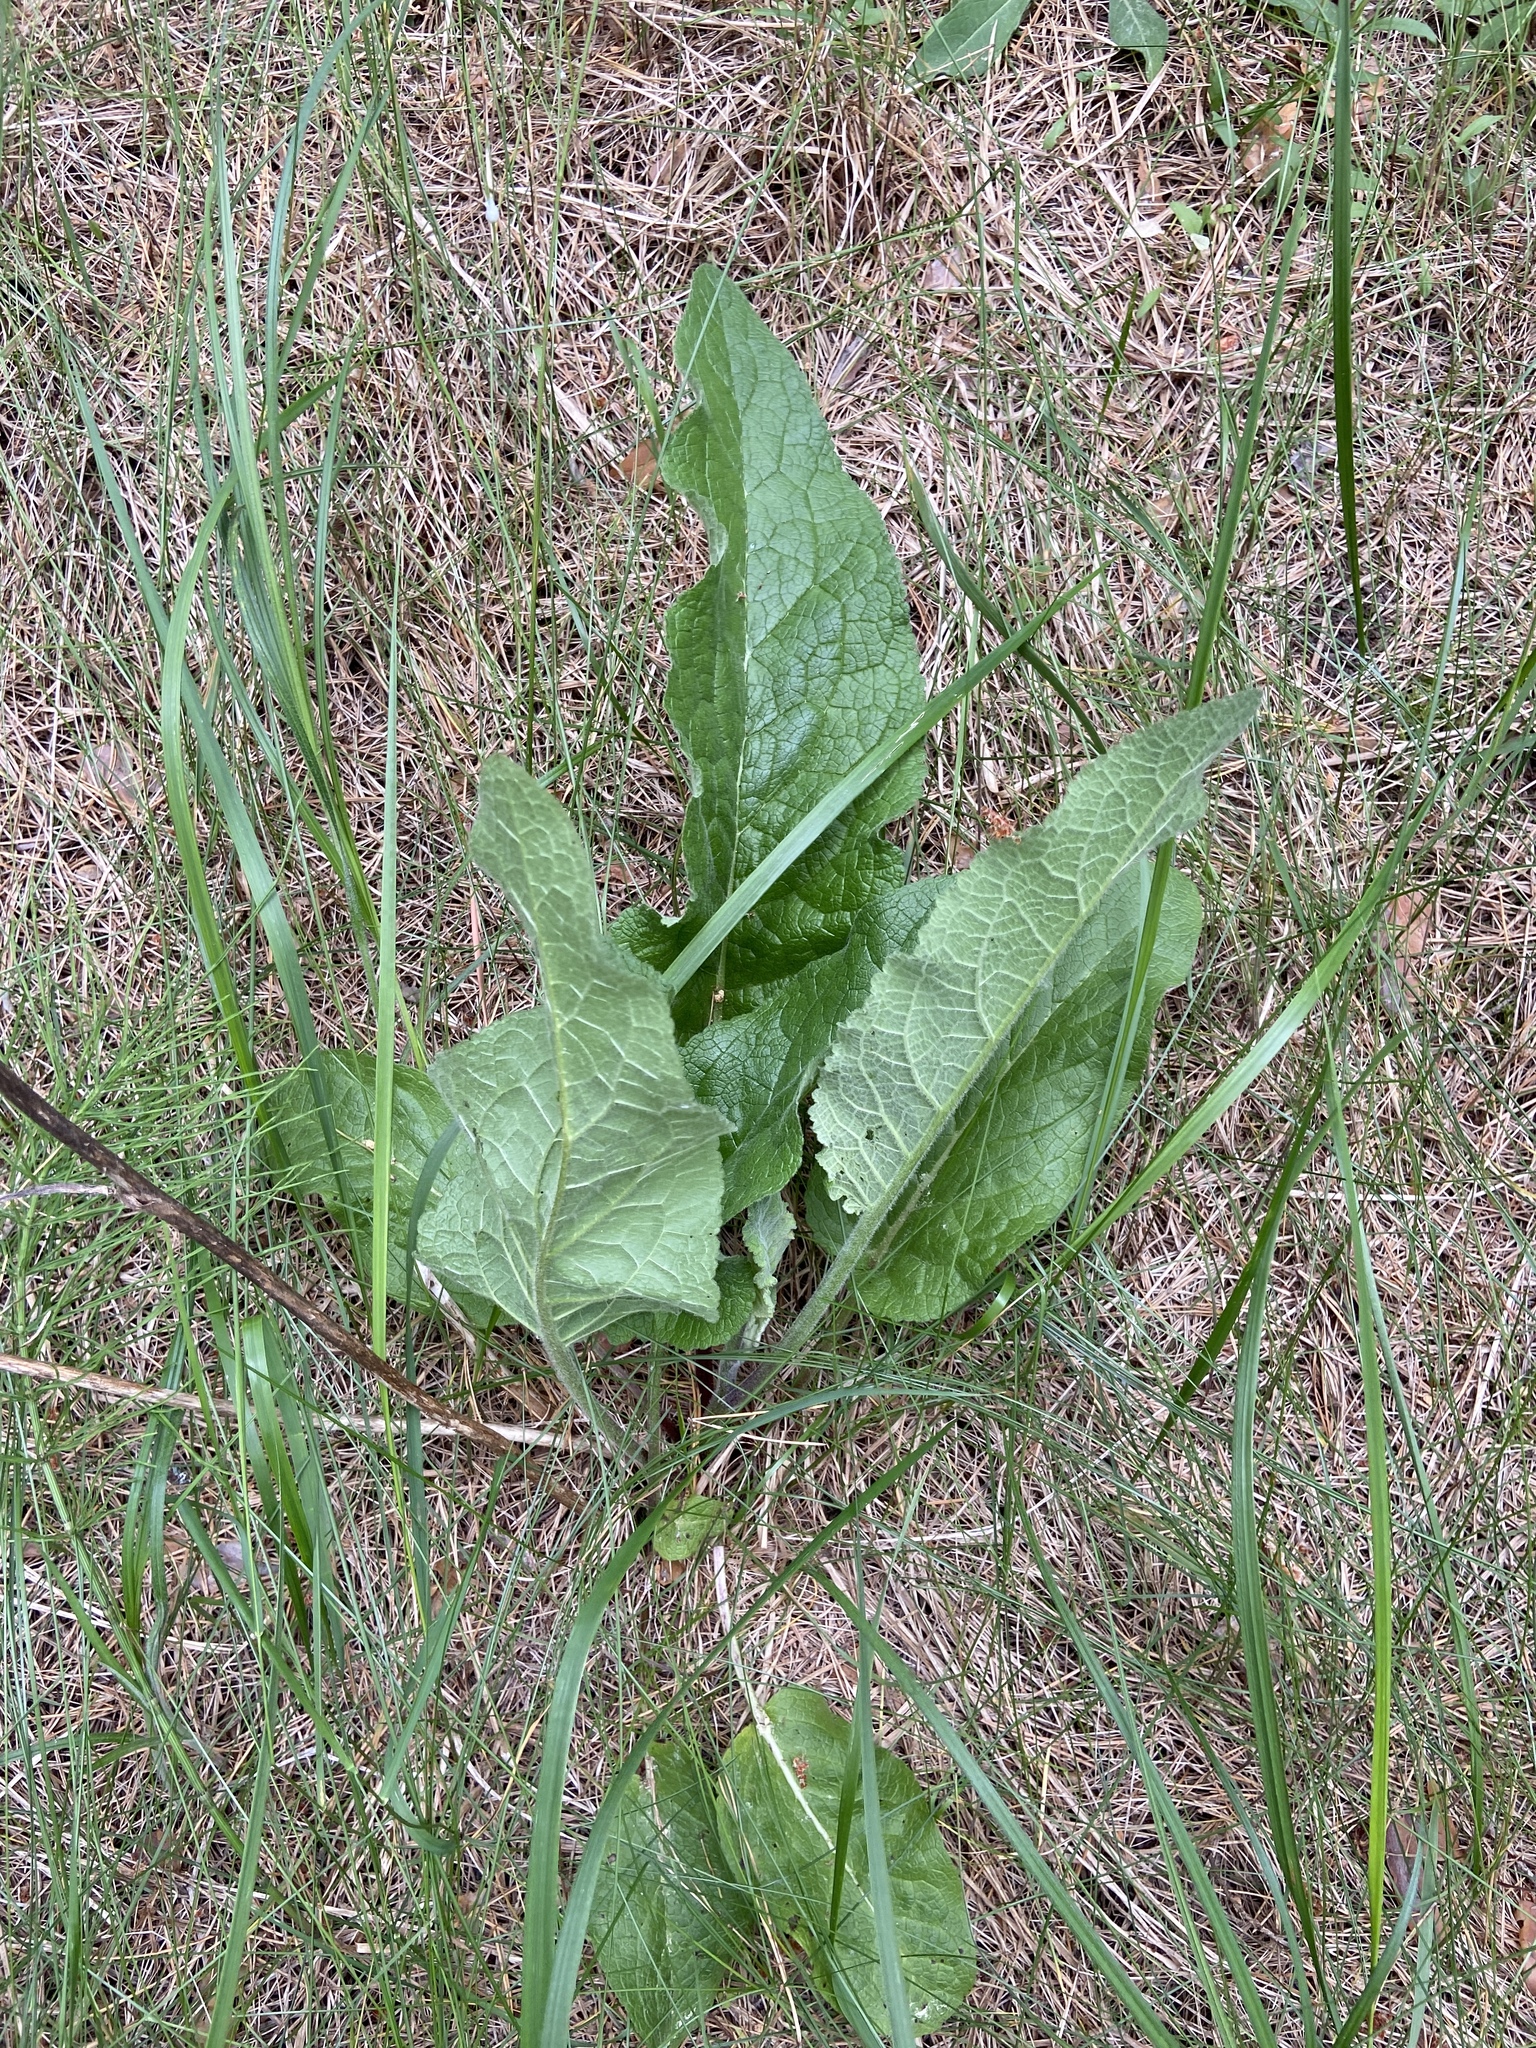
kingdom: Plantae
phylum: Tracheophyta
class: Magnoliopsida
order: Lamiales
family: Scrophulariaceae
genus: Verbascum
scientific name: Verbascum nigrum
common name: Dark mullein
